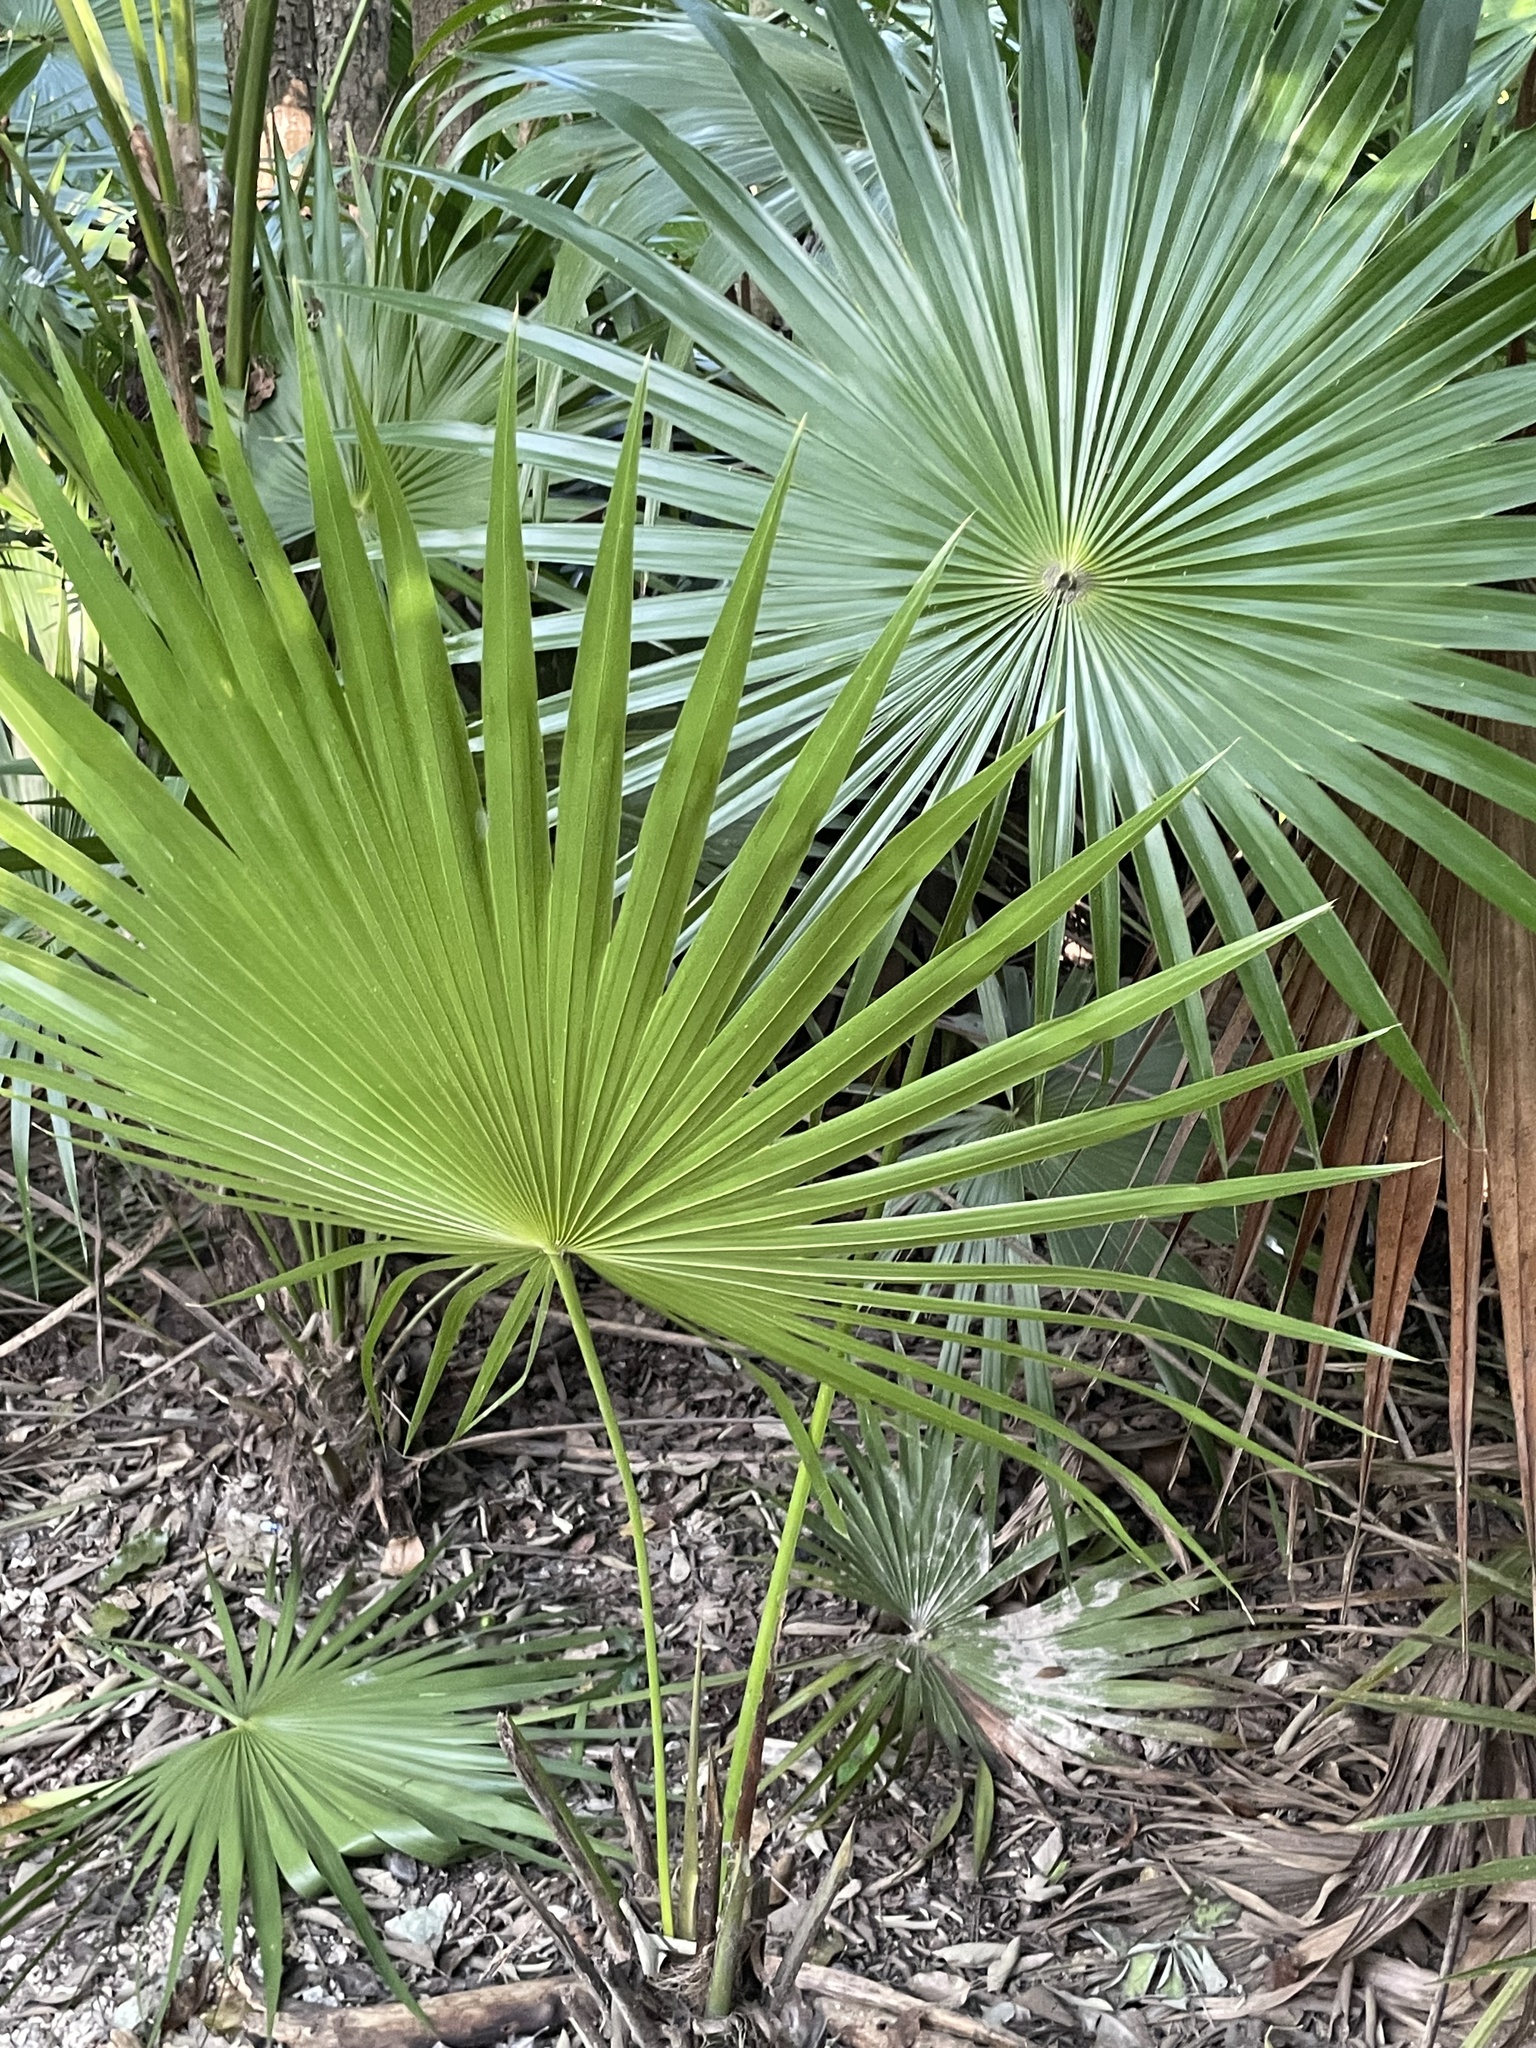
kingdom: Plantae
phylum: Tracheophyta
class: Liliopsida
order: Arecales
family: Arecaceae
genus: Thrinax
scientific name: Thrinax radiata
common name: Florida thatch
